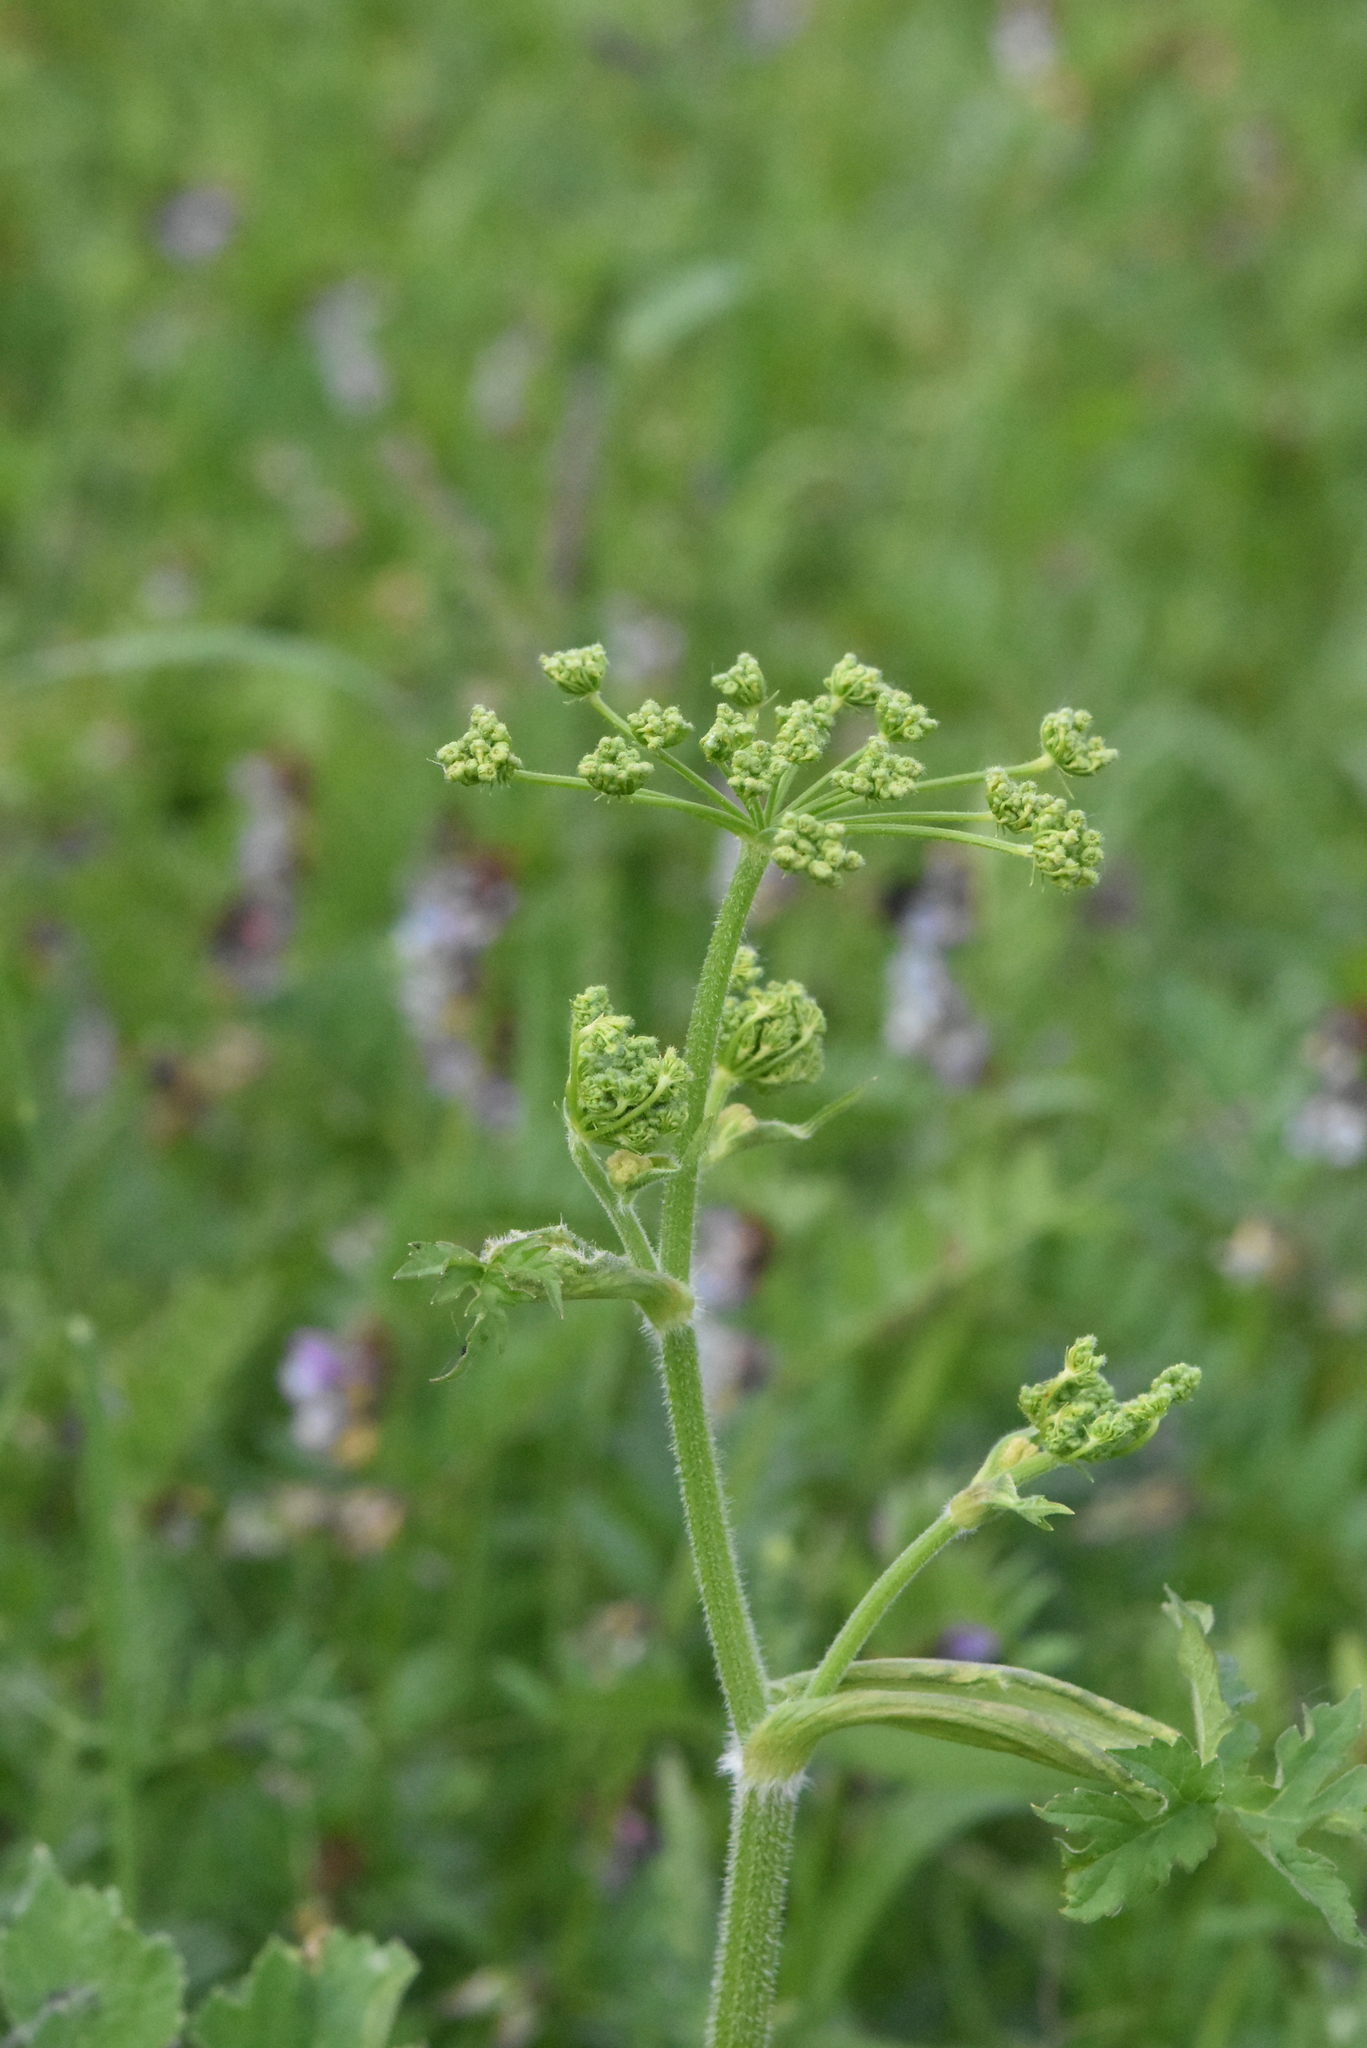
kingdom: Plantae
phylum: Tracheophyta
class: Magnoliopsida
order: Apiales
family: Apiaceae
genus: Heracleum
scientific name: Heracleum sphondylium
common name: Hogweed
